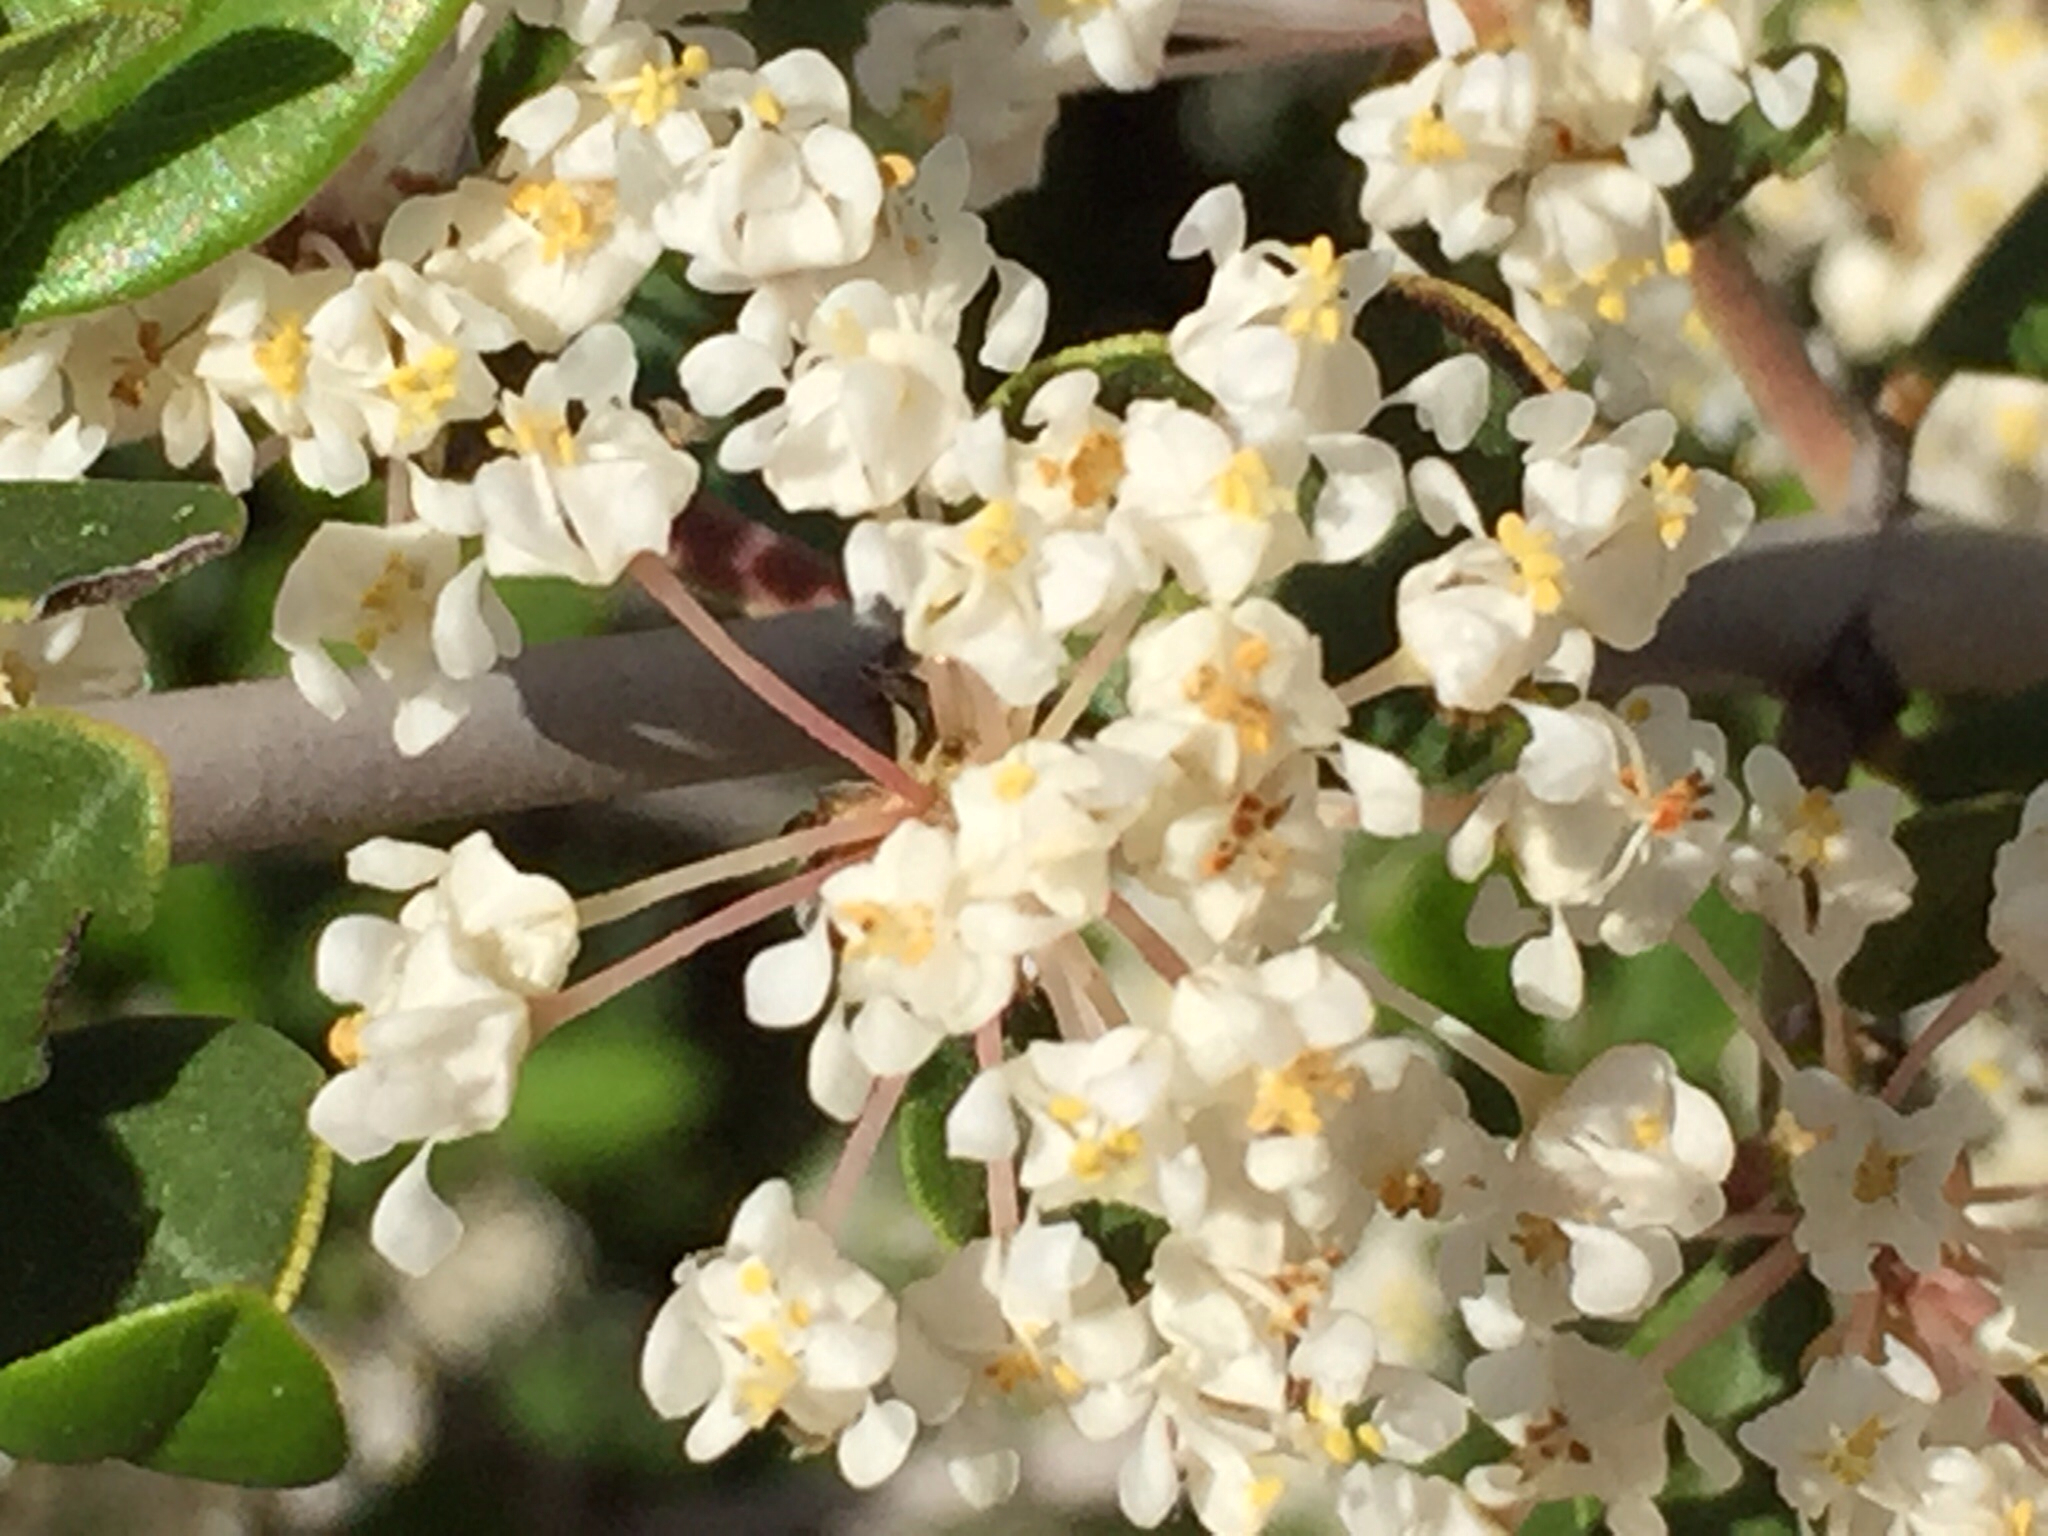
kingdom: Plantae
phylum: Tracheophyta
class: Magnoliopsida
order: Rosales
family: Rhamnaceae
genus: Ceanothus
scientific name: Ceanothus cuneatus
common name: Cuneate ceanothus
